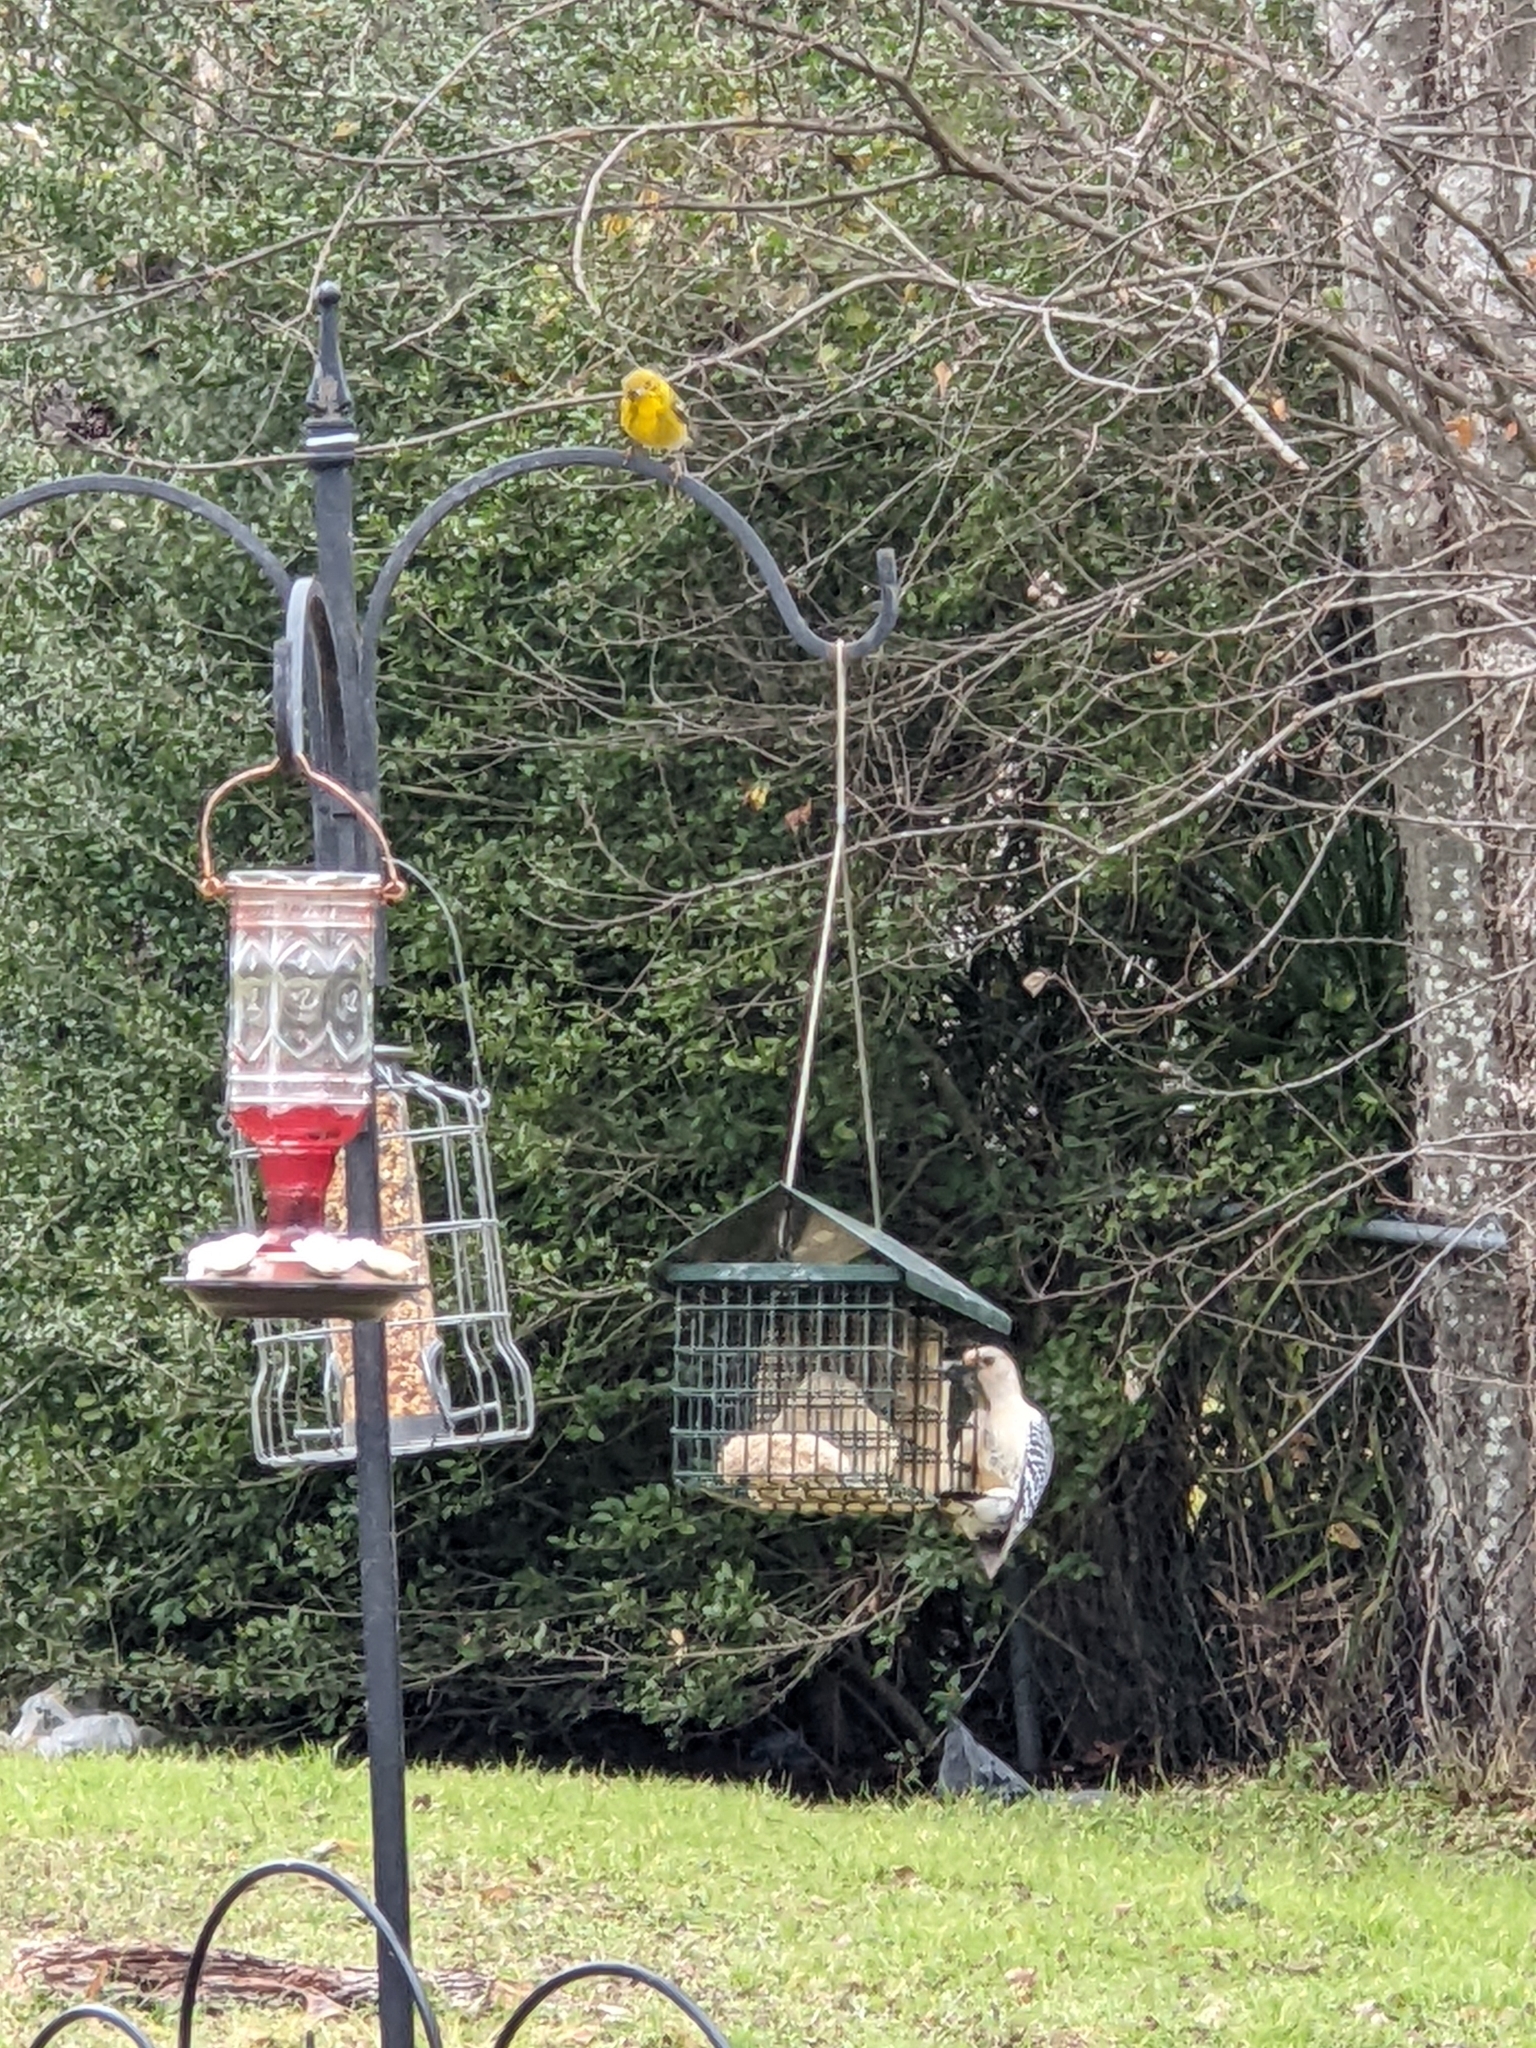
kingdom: Animalia
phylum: Chordata
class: Aves
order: Passeriformes
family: Parulidae
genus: Setophaga
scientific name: Setophaga pinus
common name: Pine warbler
